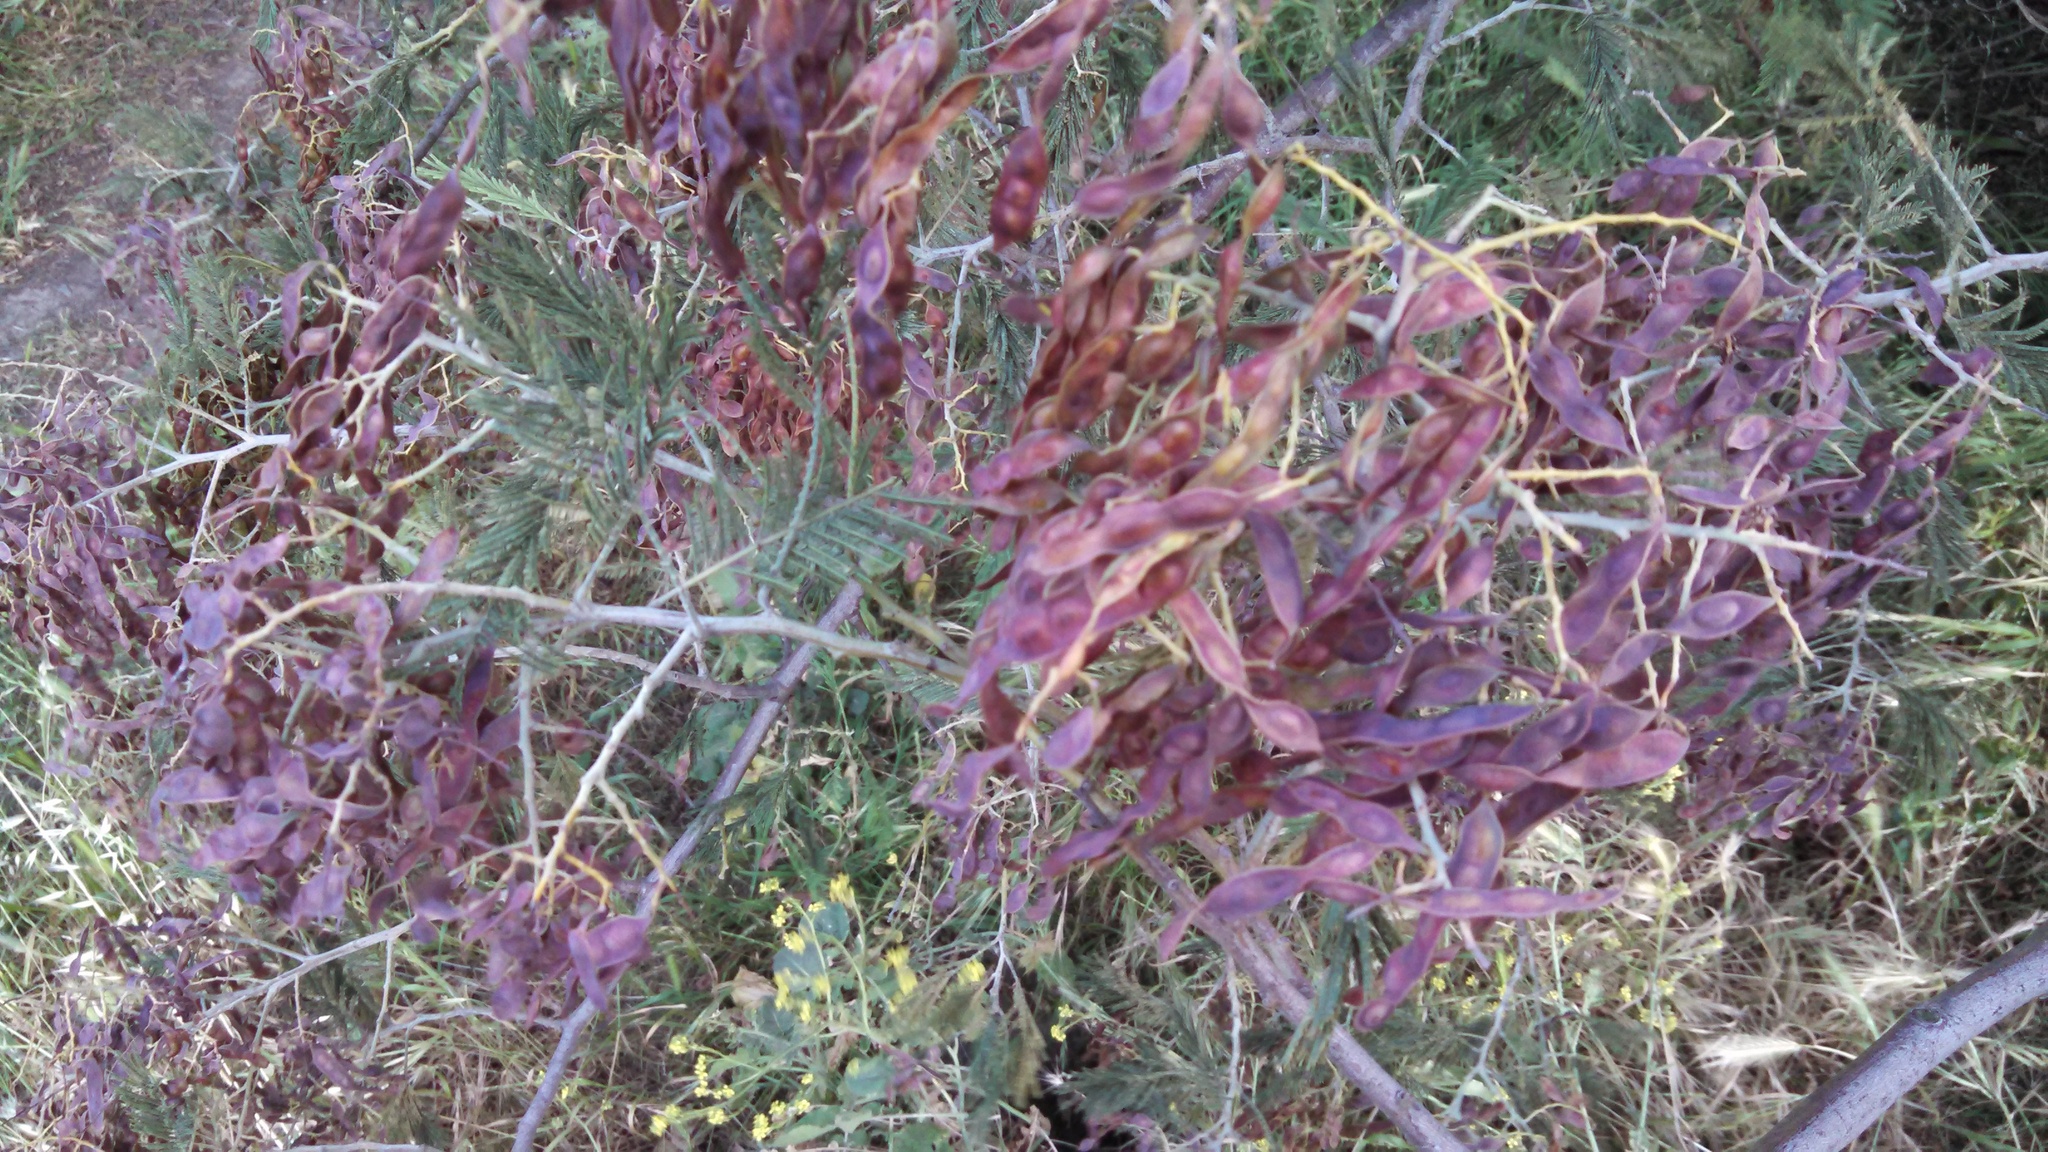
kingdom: Plantae
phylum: Tracheophyta
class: Magnoliopsida
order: Fabales
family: Fabaceae
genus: Acacia
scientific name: Acacia dealbata
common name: Silver wattle
